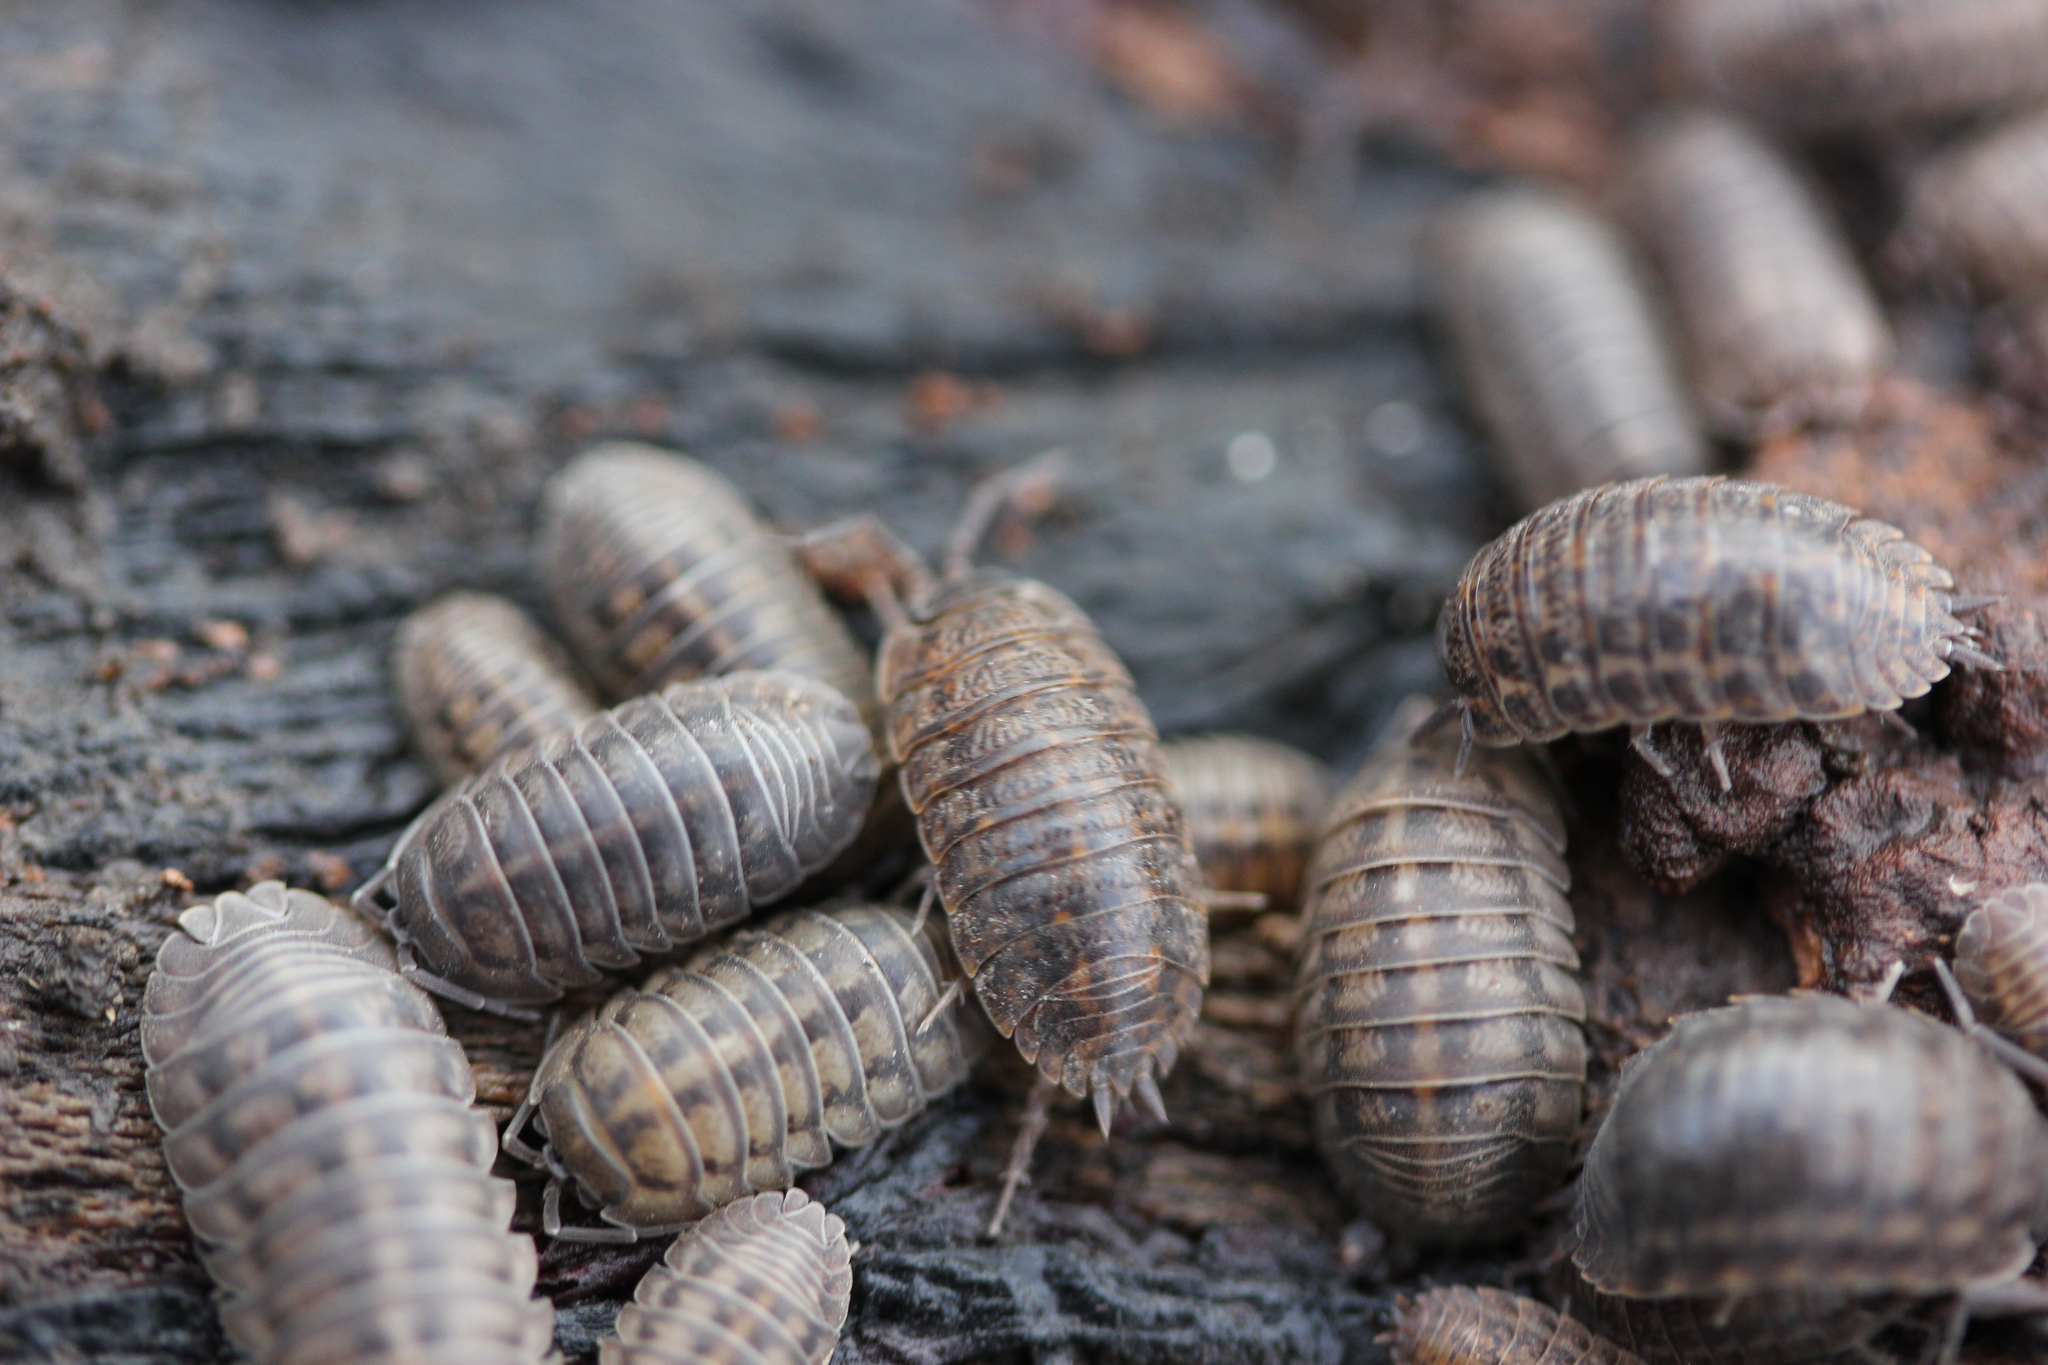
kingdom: Animalia
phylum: Arthropoda
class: Malacostraca
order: Isopoda
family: Trachelipodidae
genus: Trachelipus
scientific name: Trachelipus rathkii
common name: Isopod
